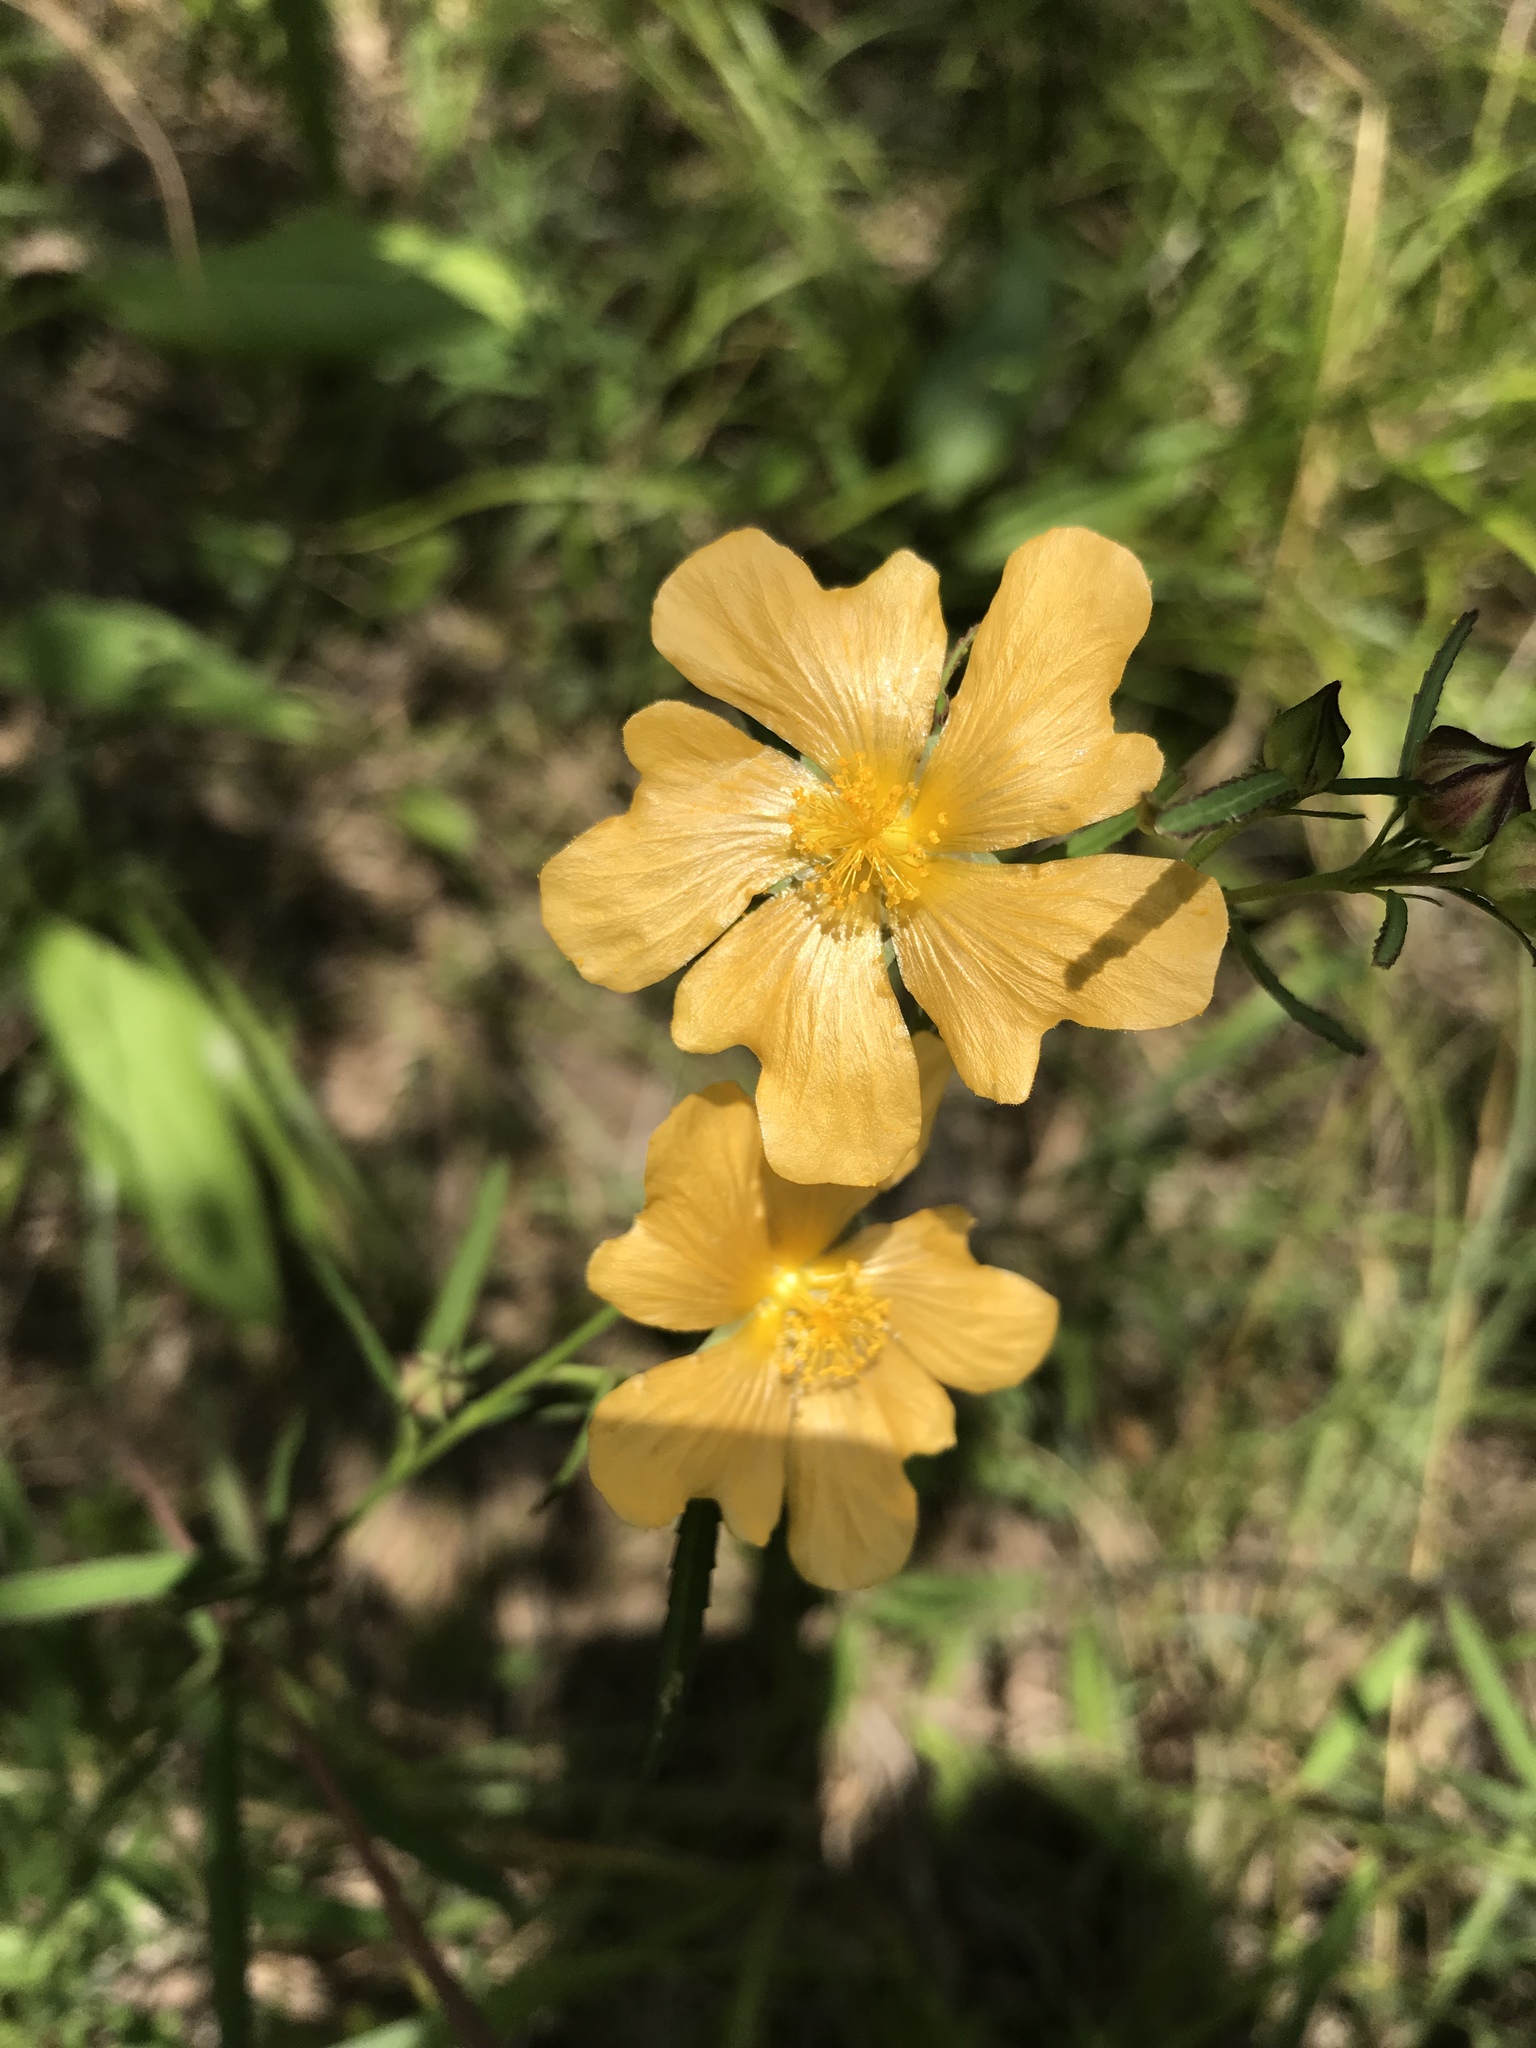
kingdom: Plantae
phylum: Tracheophyta
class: Magnoliopsida
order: Malvales
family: Malvaceae
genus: Sida
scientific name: Sida elliottii
